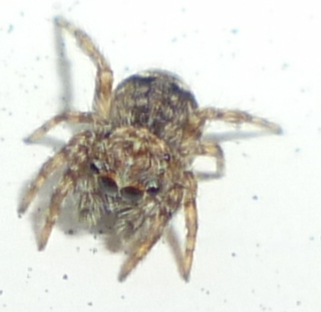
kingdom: Animalia
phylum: Arthropoda
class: Arachnida
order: Araneae
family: Salticidae
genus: Attulus
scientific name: Attulus fasciger
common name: Asiatic wall jumping spider
